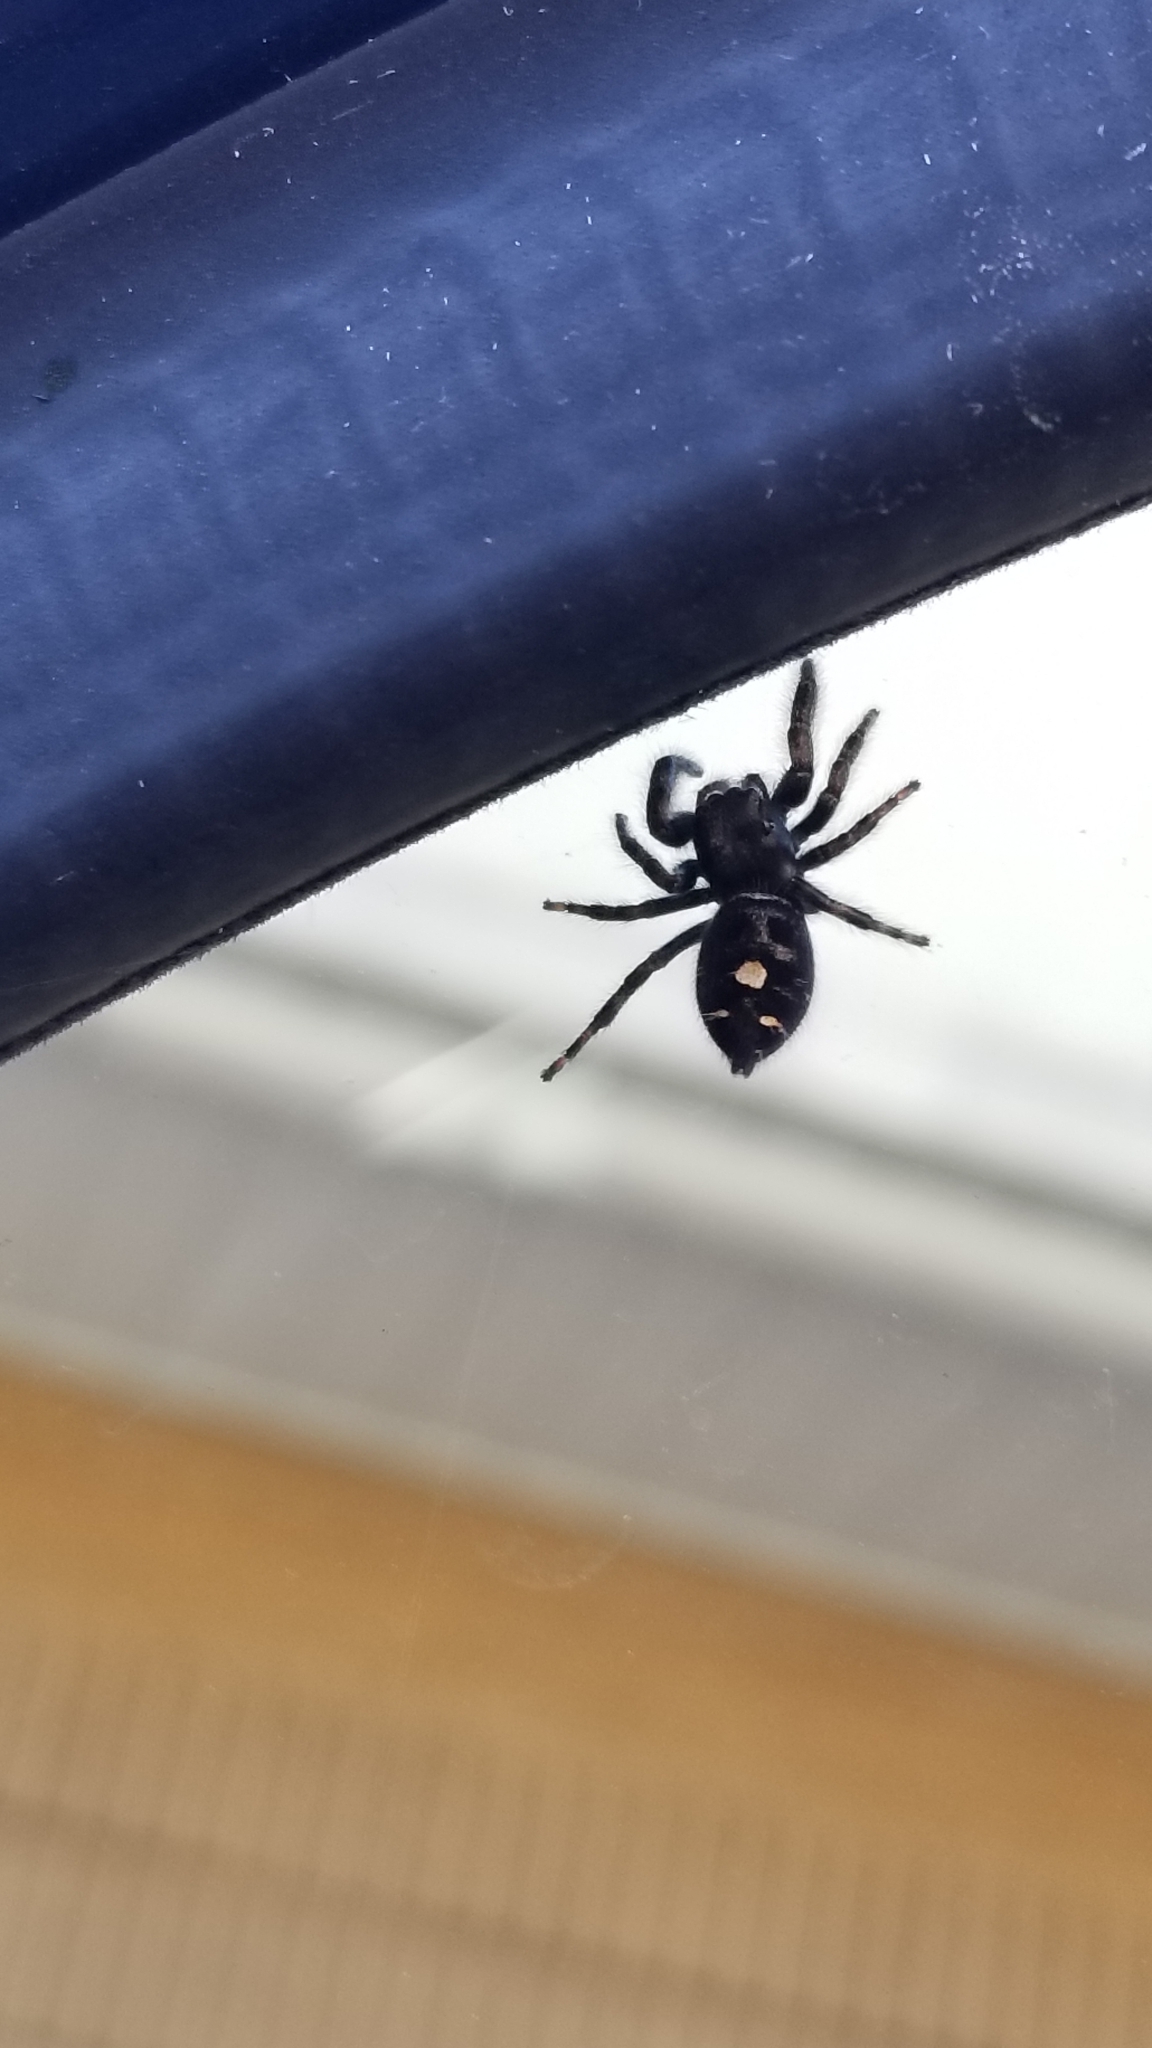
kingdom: Animalia
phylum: Arthropoda
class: Arachnida
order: Araneae
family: Salticidae
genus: Phidippus
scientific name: Phidippus audax
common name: Bold jumper
